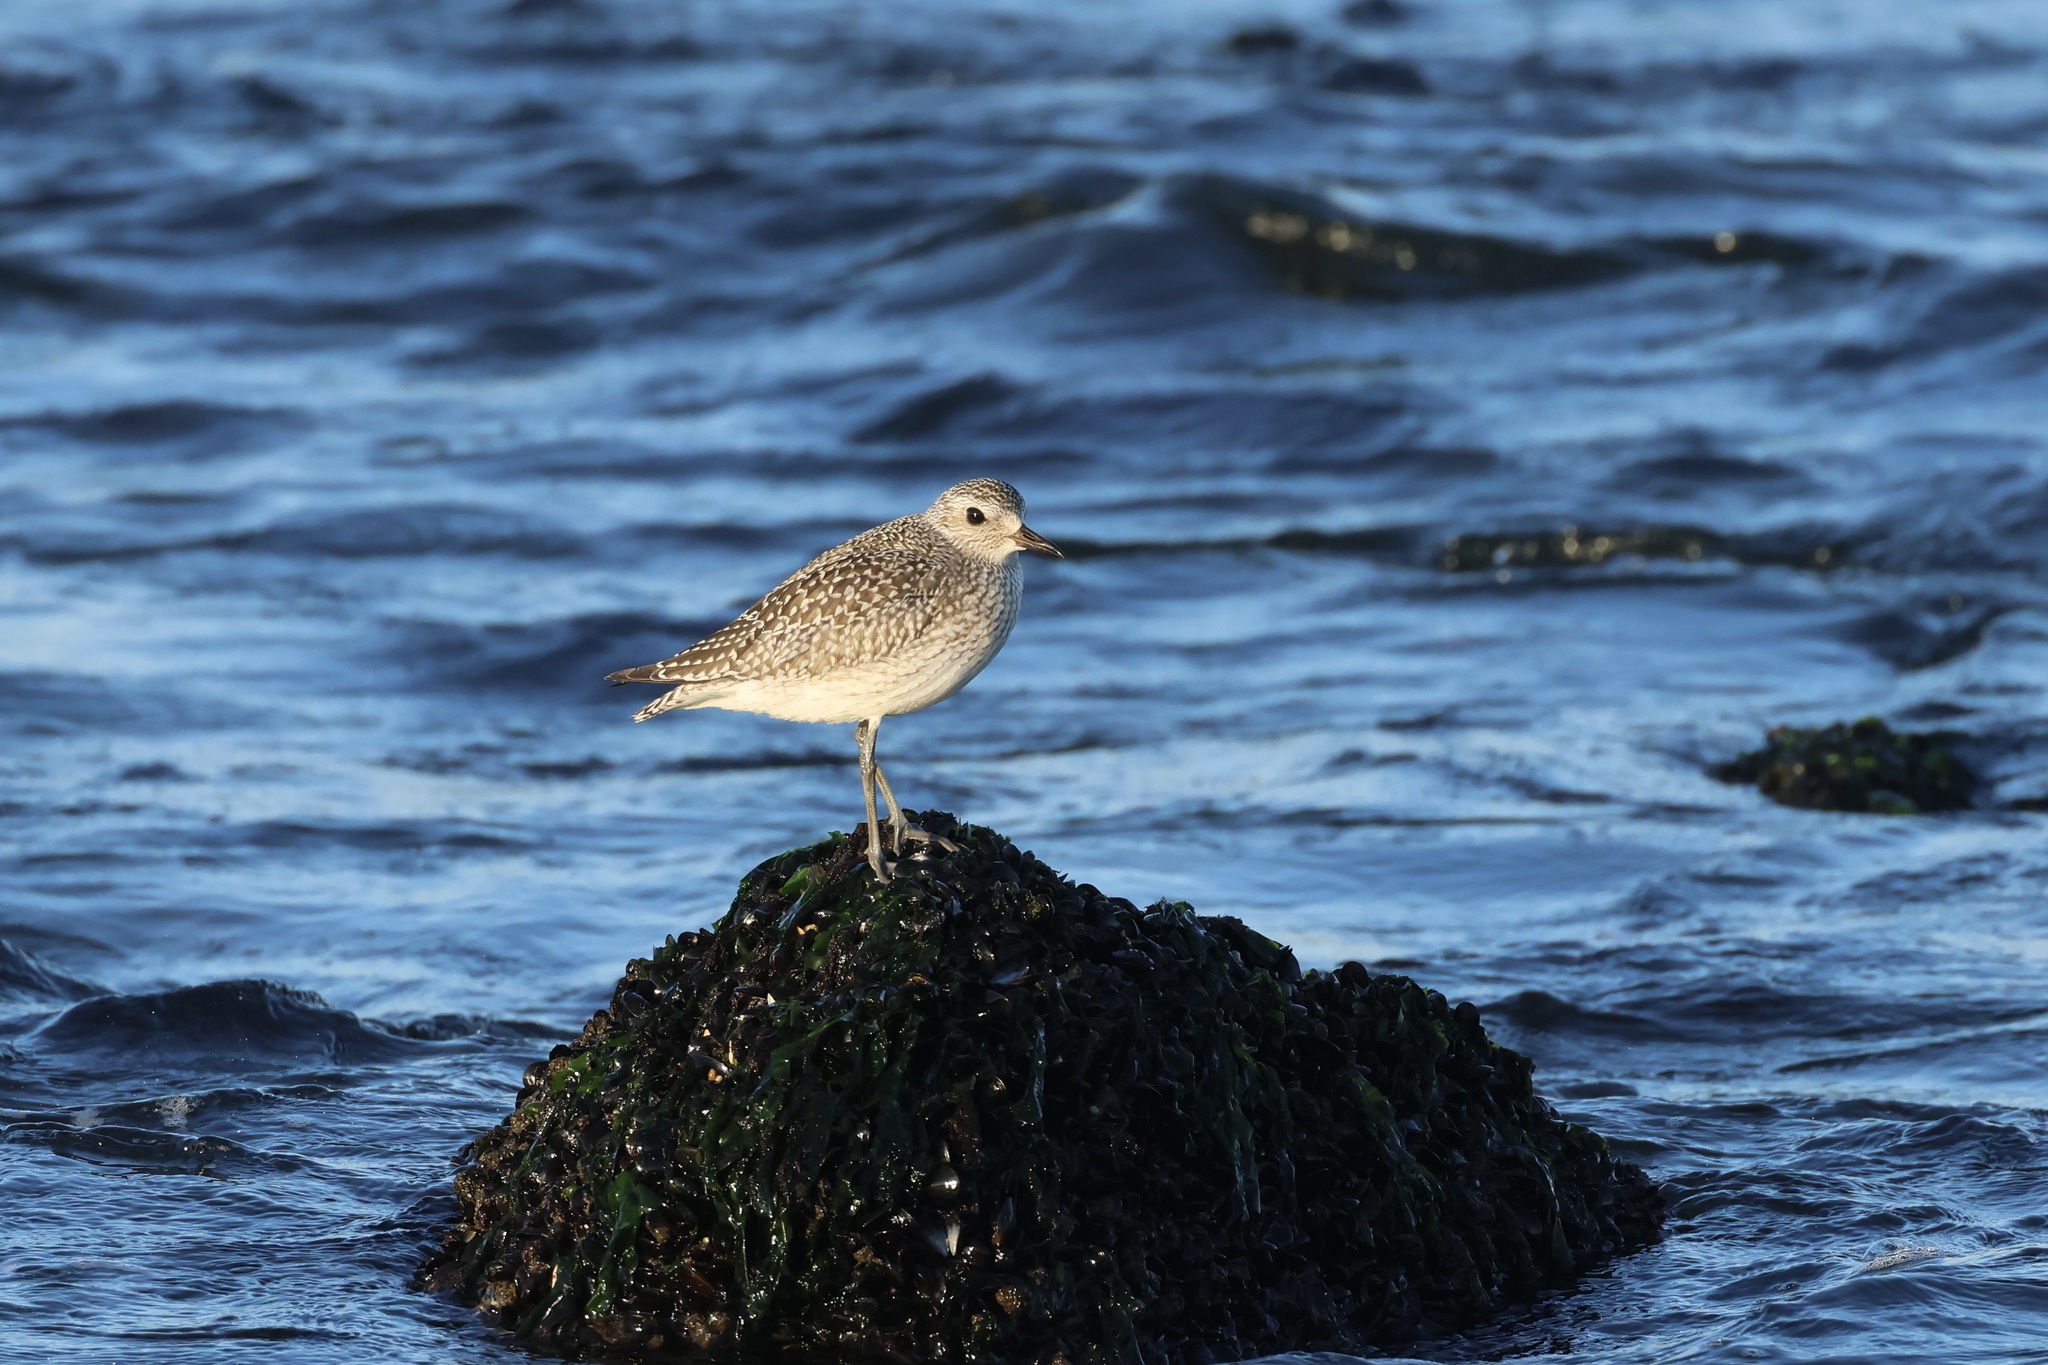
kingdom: Animalia
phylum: Chordata
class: Aves
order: Charadriiformes
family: Charadriidae
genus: Pluvialis
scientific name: Pluvialis squatarola
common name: Grey plover
